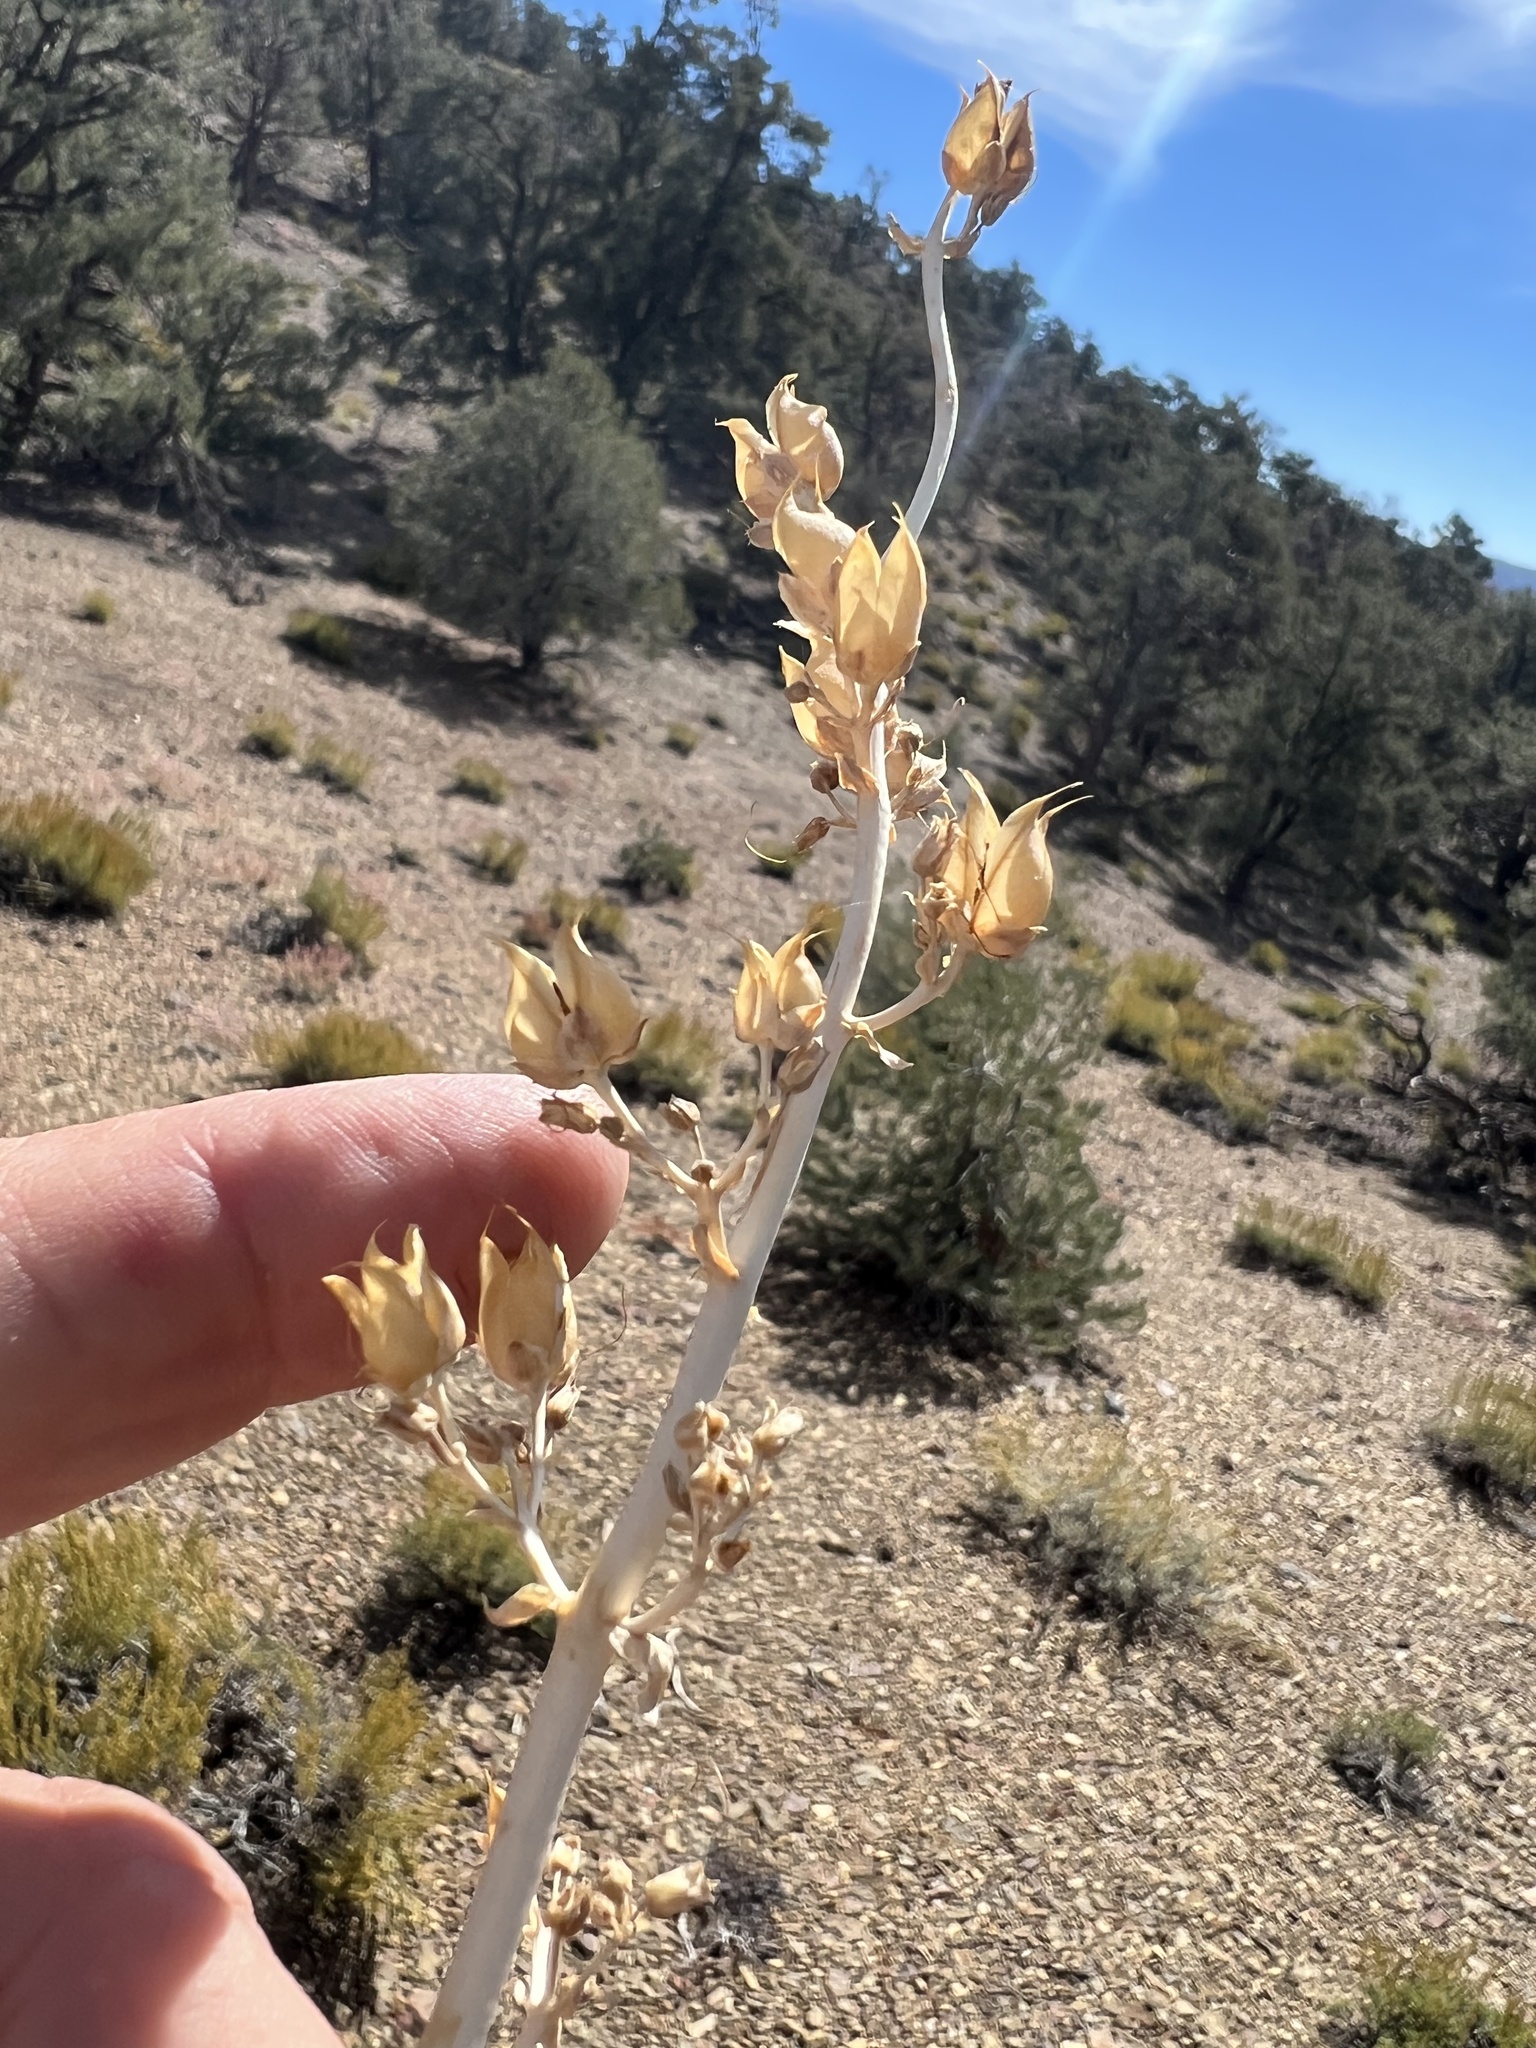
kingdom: Plantae
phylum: Tracheophyta
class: Magnoliopsida
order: Lamiales
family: Plantaginaceae
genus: Penstemon
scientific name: Penstemon patens
